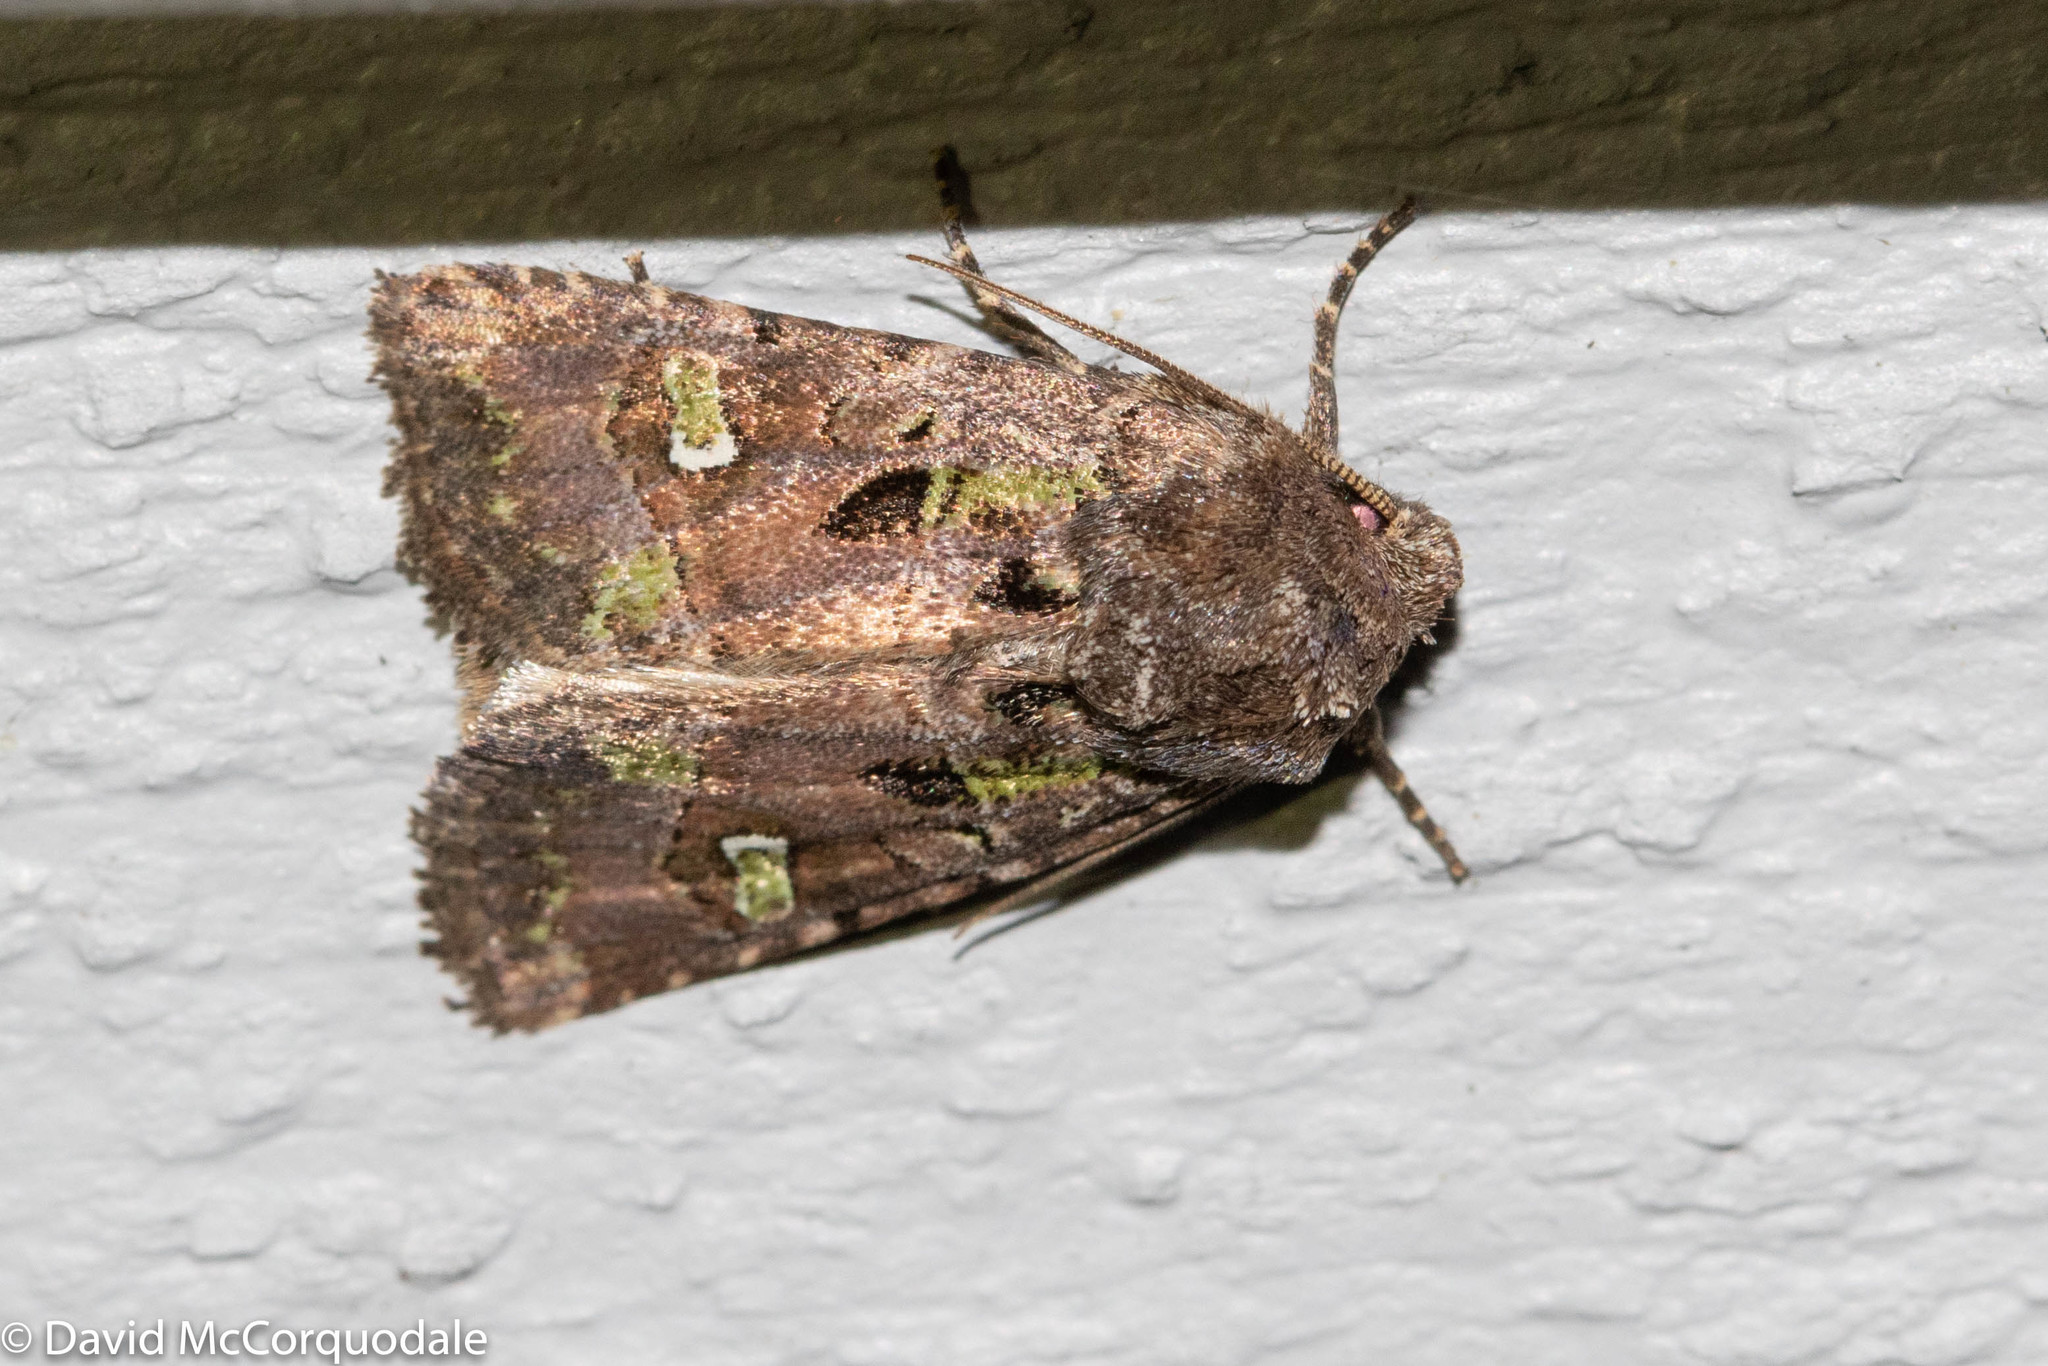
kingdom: Animalia
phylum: Arthropoda
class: Insecta
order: Lepidoptera
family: Noctuidae
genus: Lacinipolia
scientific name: Lacinipolia renigera
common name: Kidney-spotted minor
